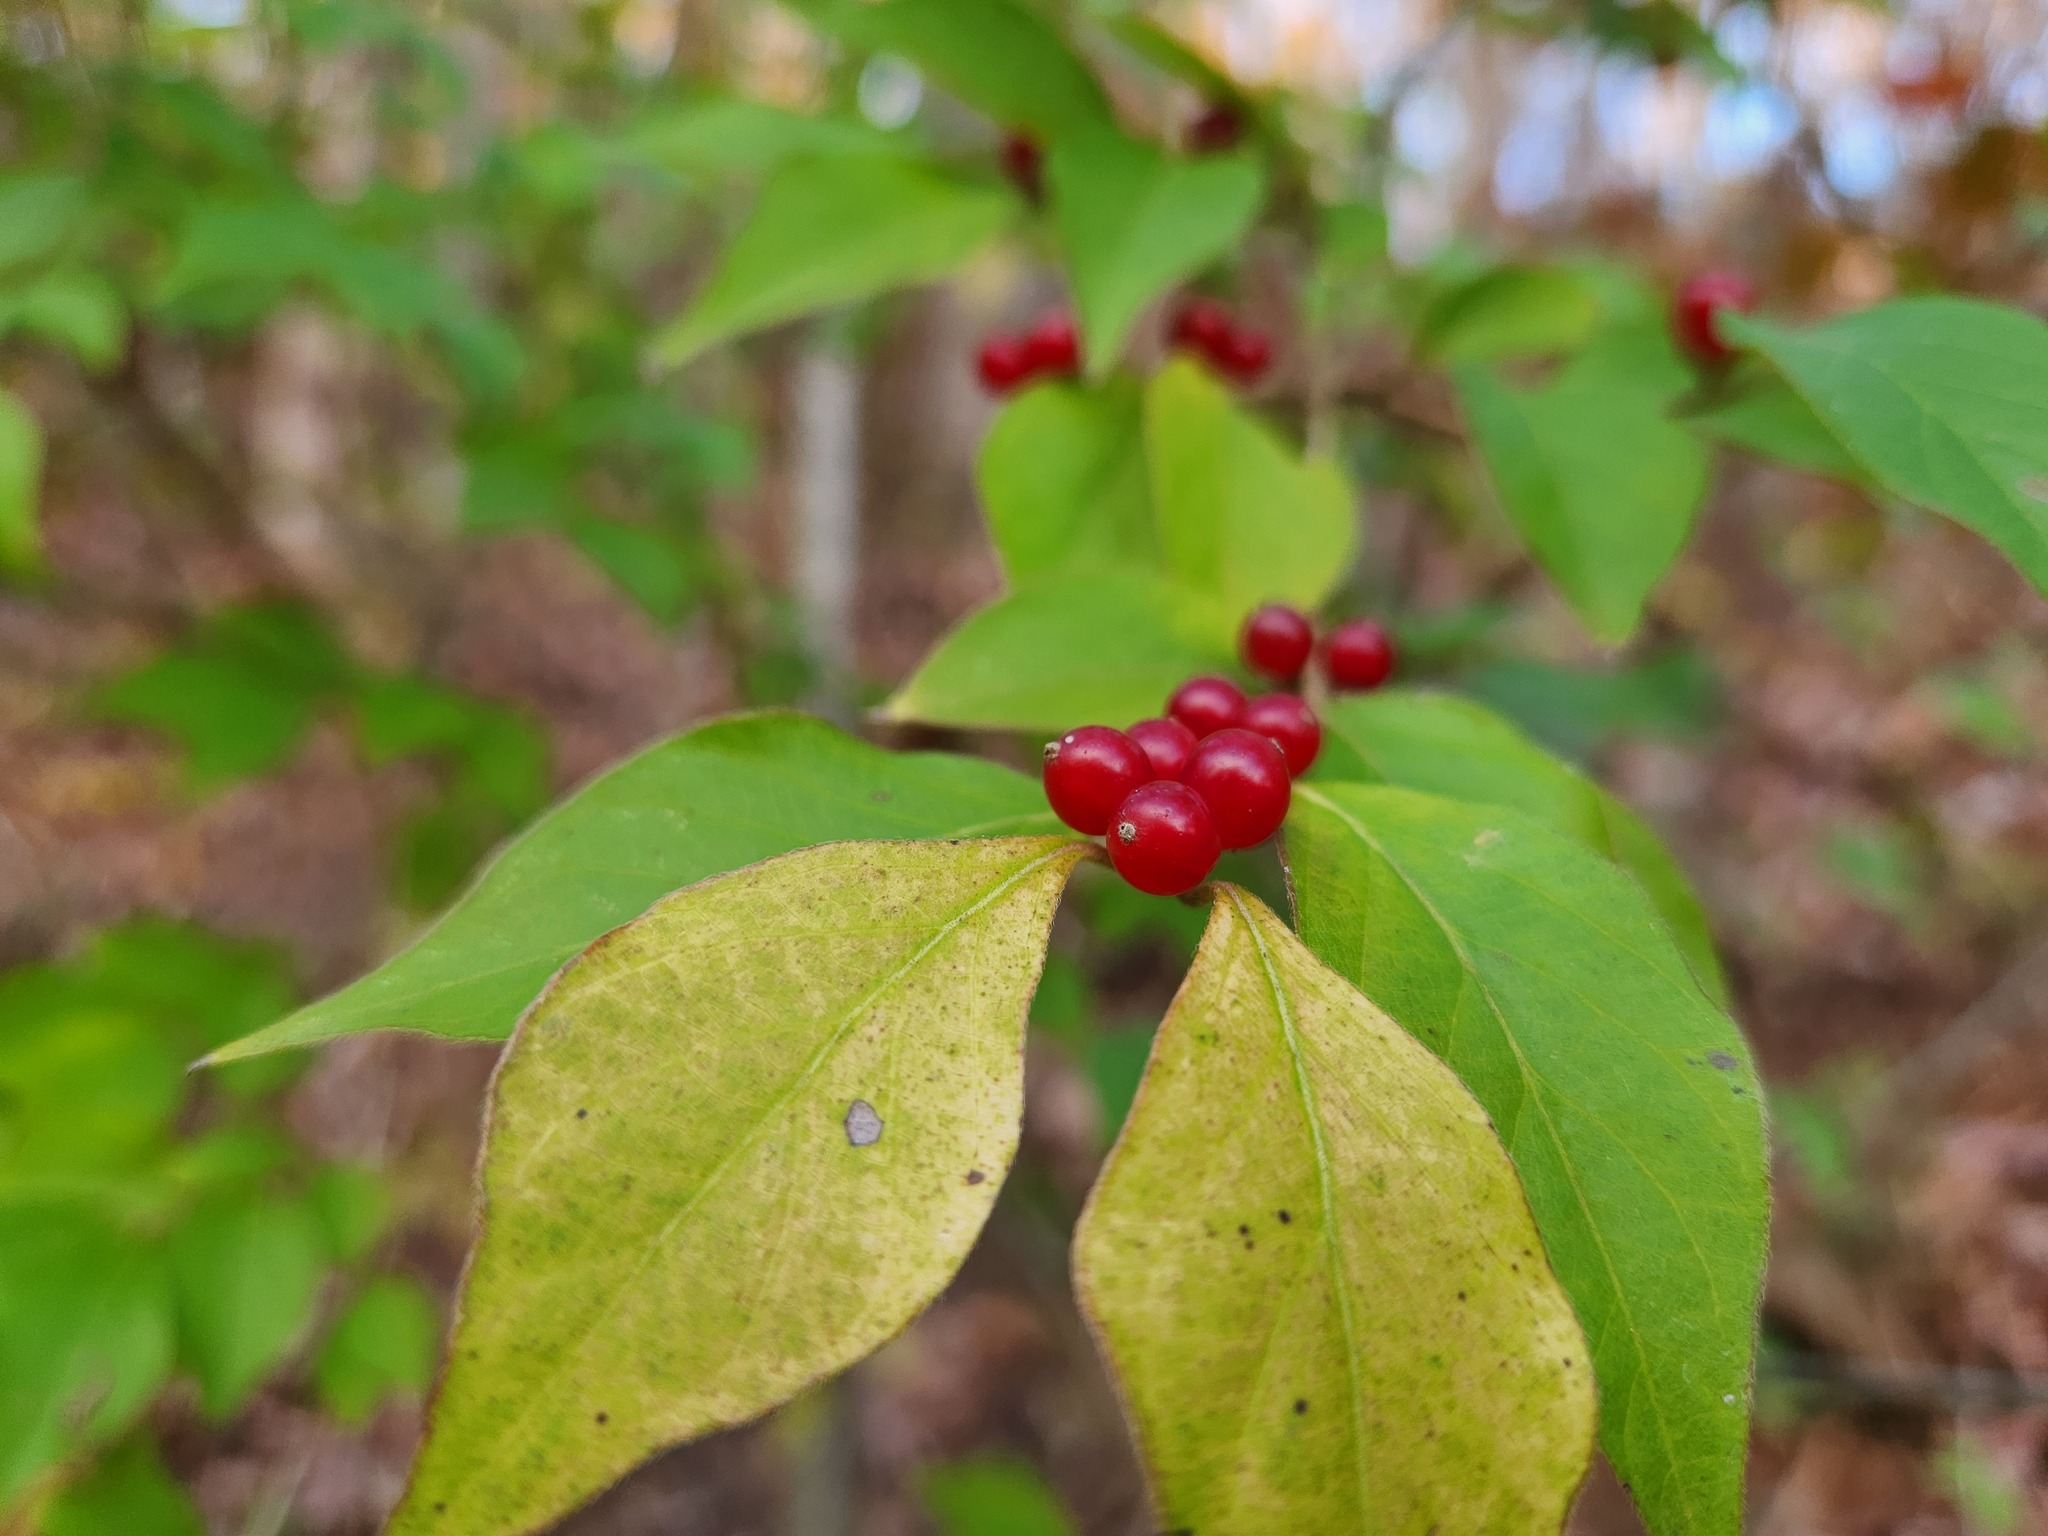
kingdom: Plantae
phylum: Tracheophyta
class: Magnoliopsida
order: Dipsacales
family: Caprifoliaceae
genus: Lonicera
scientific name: Lonicera maackii
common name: Amur honeysuckle
